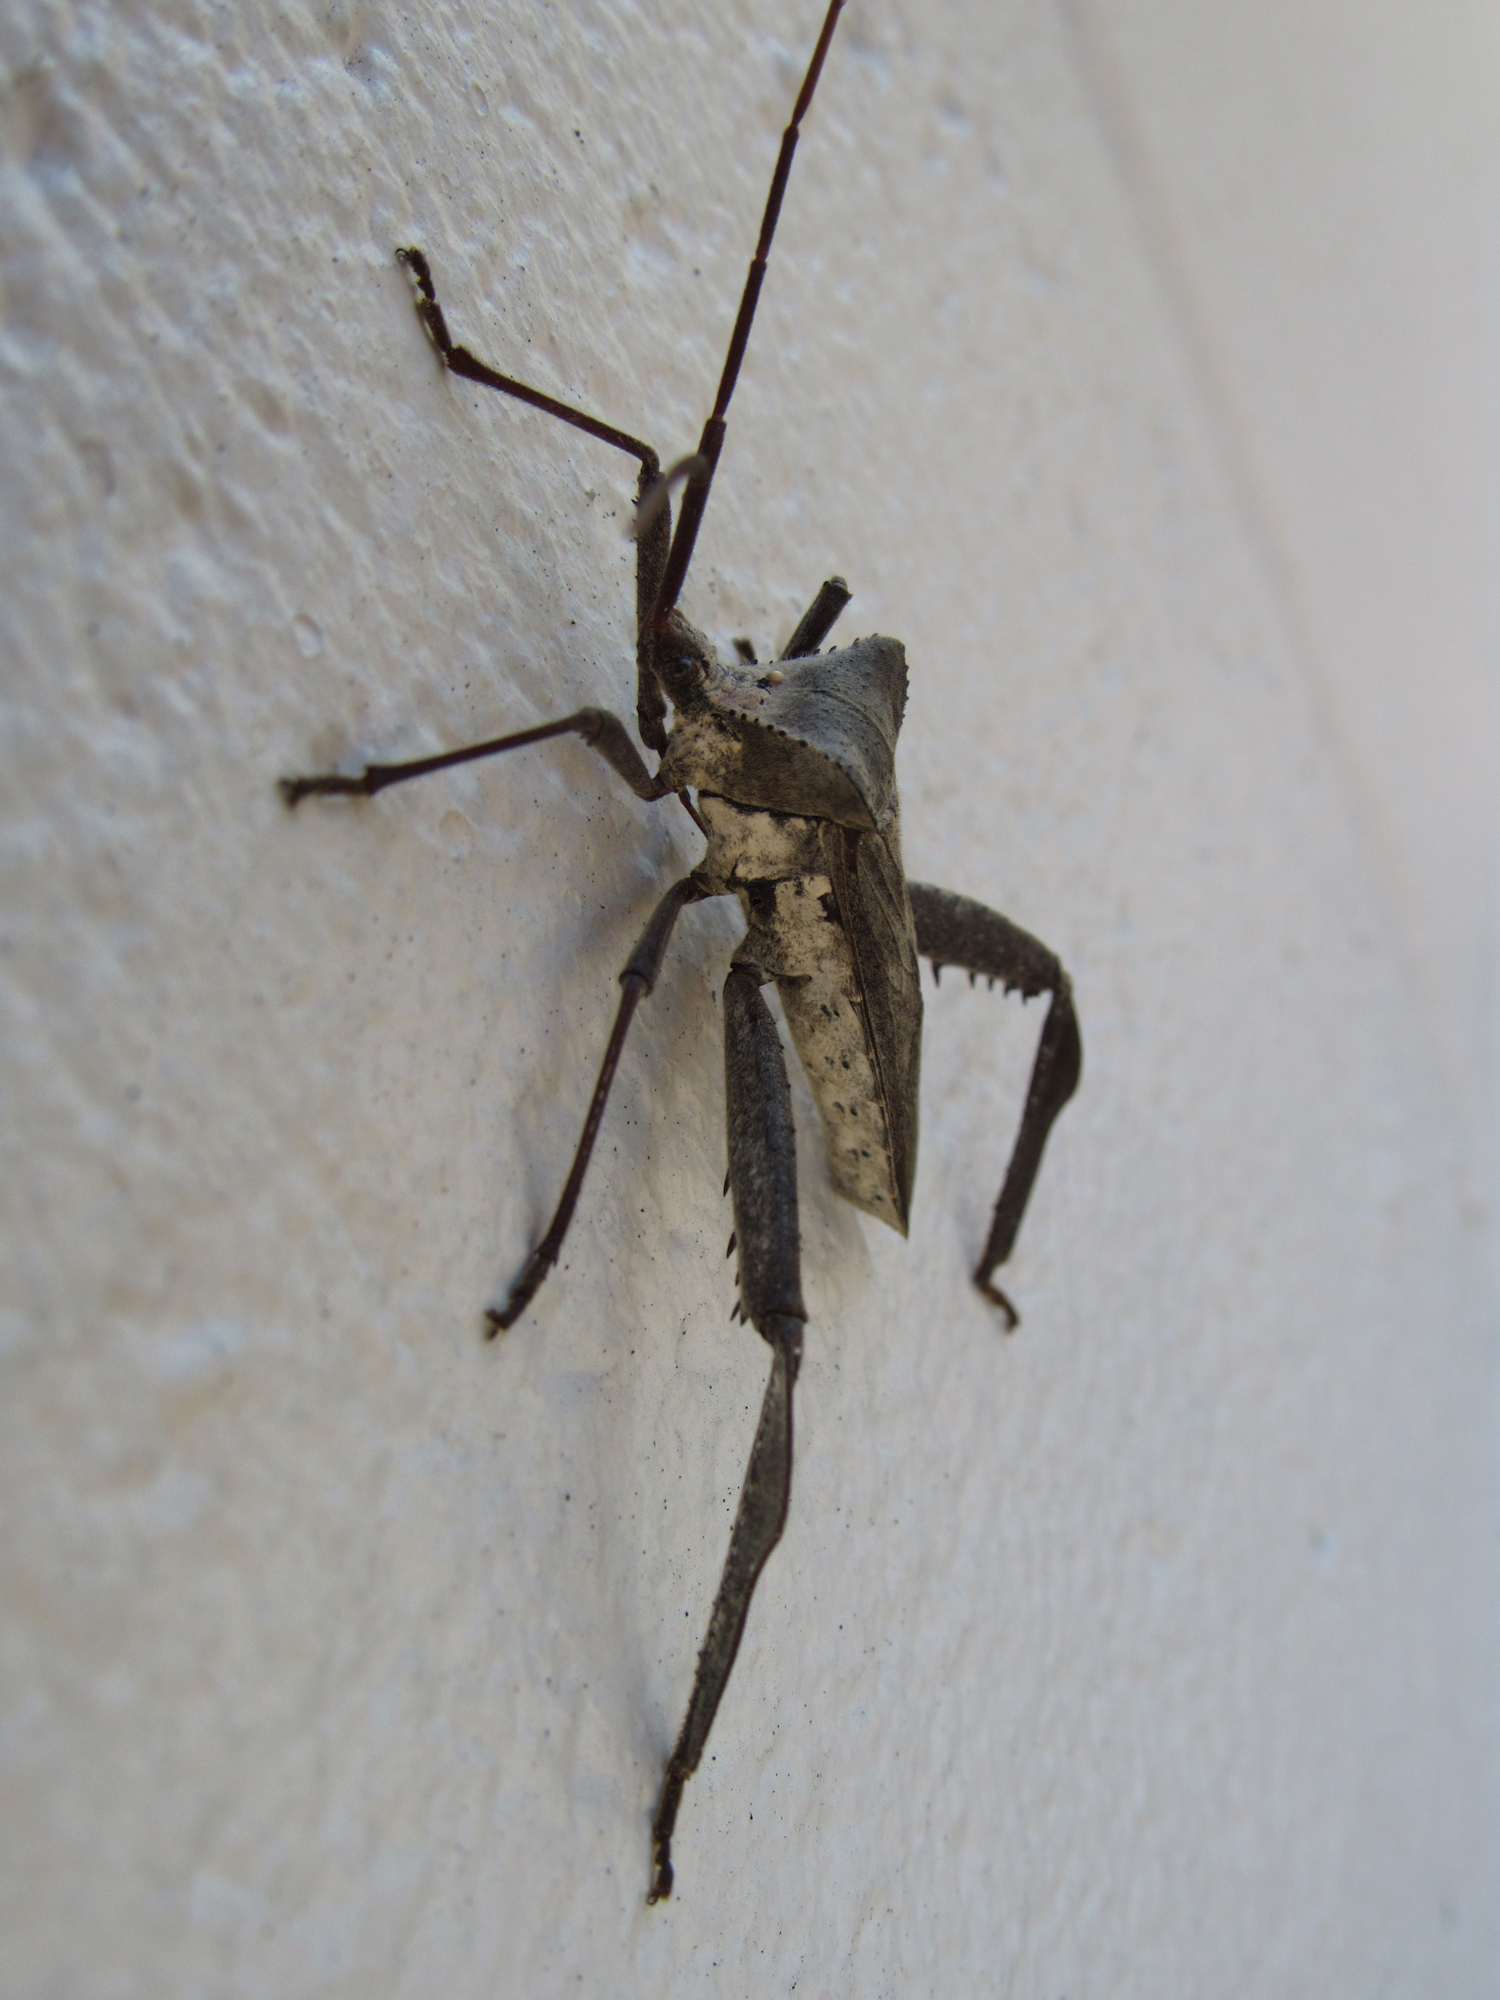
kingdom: Animalia
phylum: Arthropoda
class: Insecta
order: Hemiptera
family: Coreidae
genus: Acanthocephala
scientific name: Acanthocephala declivis
